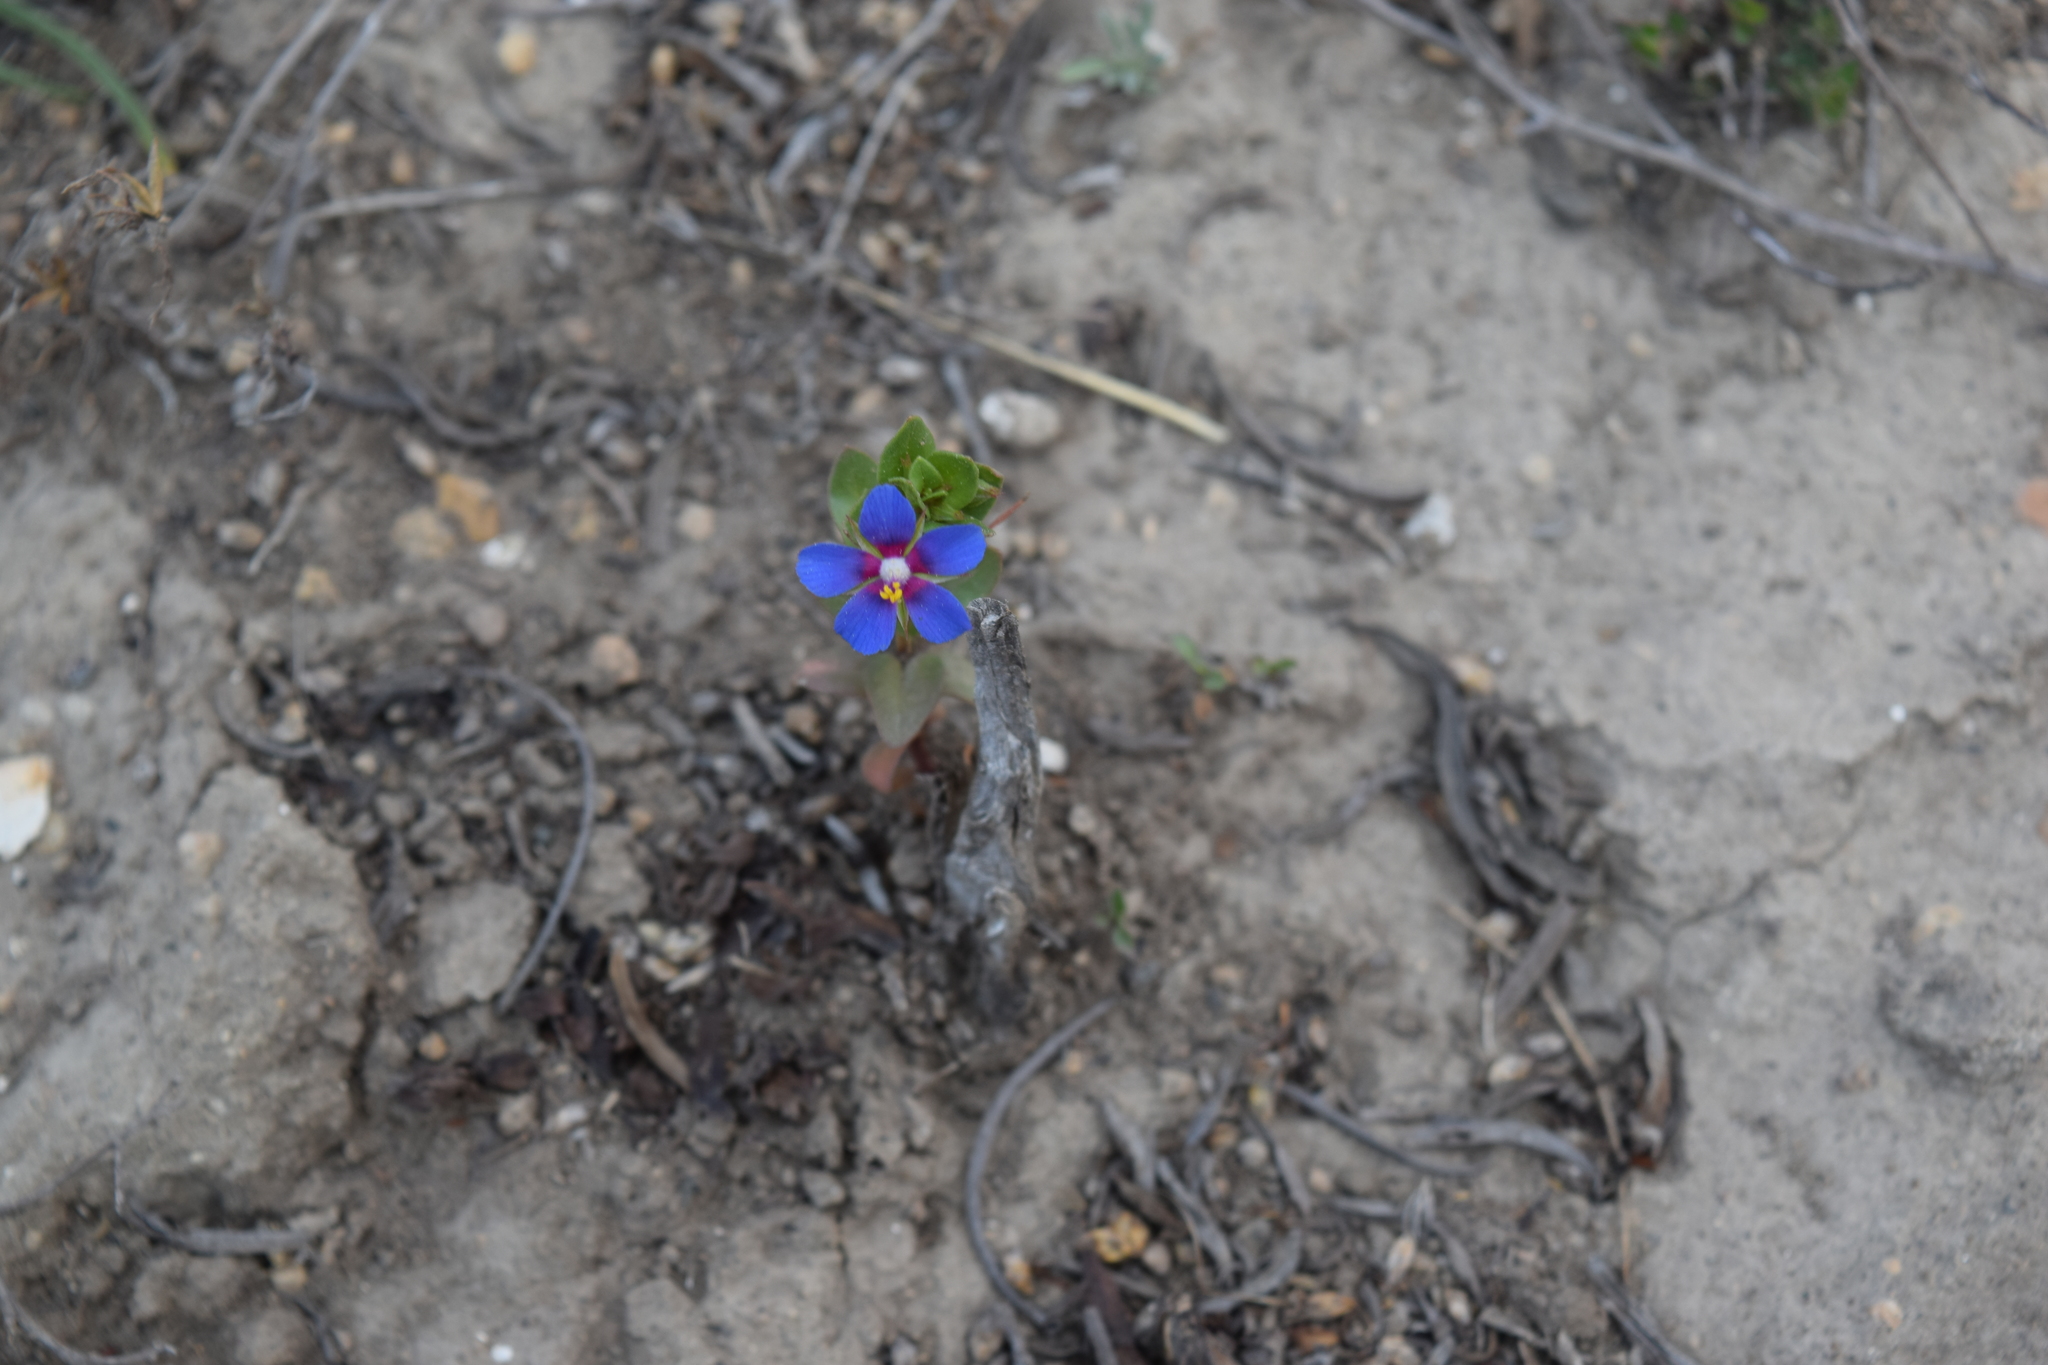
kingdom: Plantae
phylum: Tracheophyta
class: Magnoliopsida
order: Ericales
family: Primulaceae
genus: Lysimachia
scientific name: Lysimachia loeflingii
